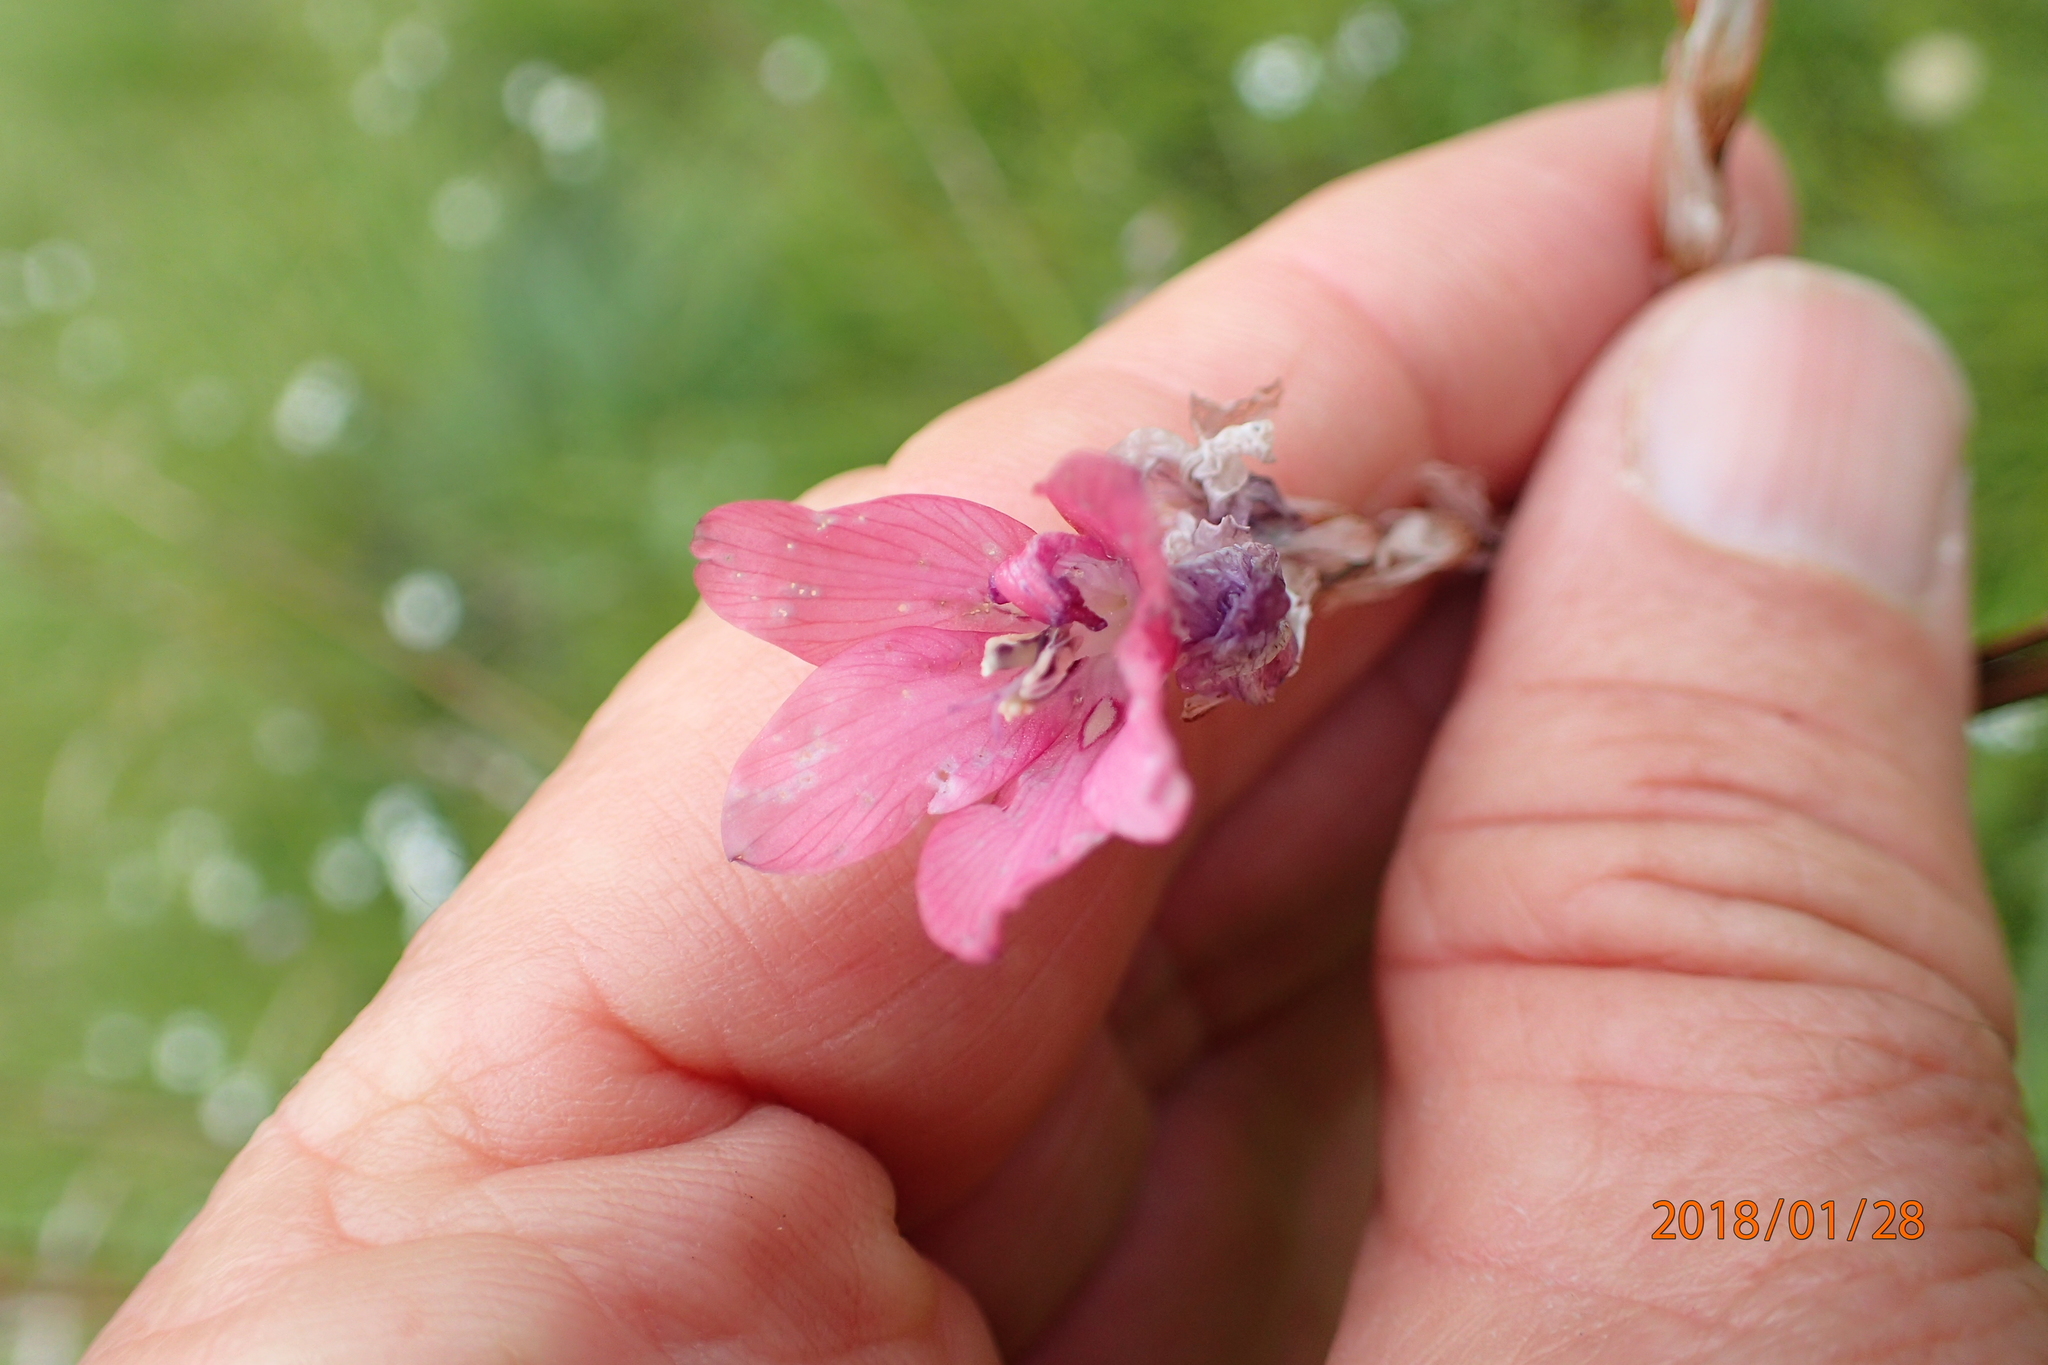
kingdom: Plantae
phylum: Tracheophyta
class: Liliopsida
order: Asparagales
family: Iridaceae
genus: Dierama
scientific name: Dierama robustum
